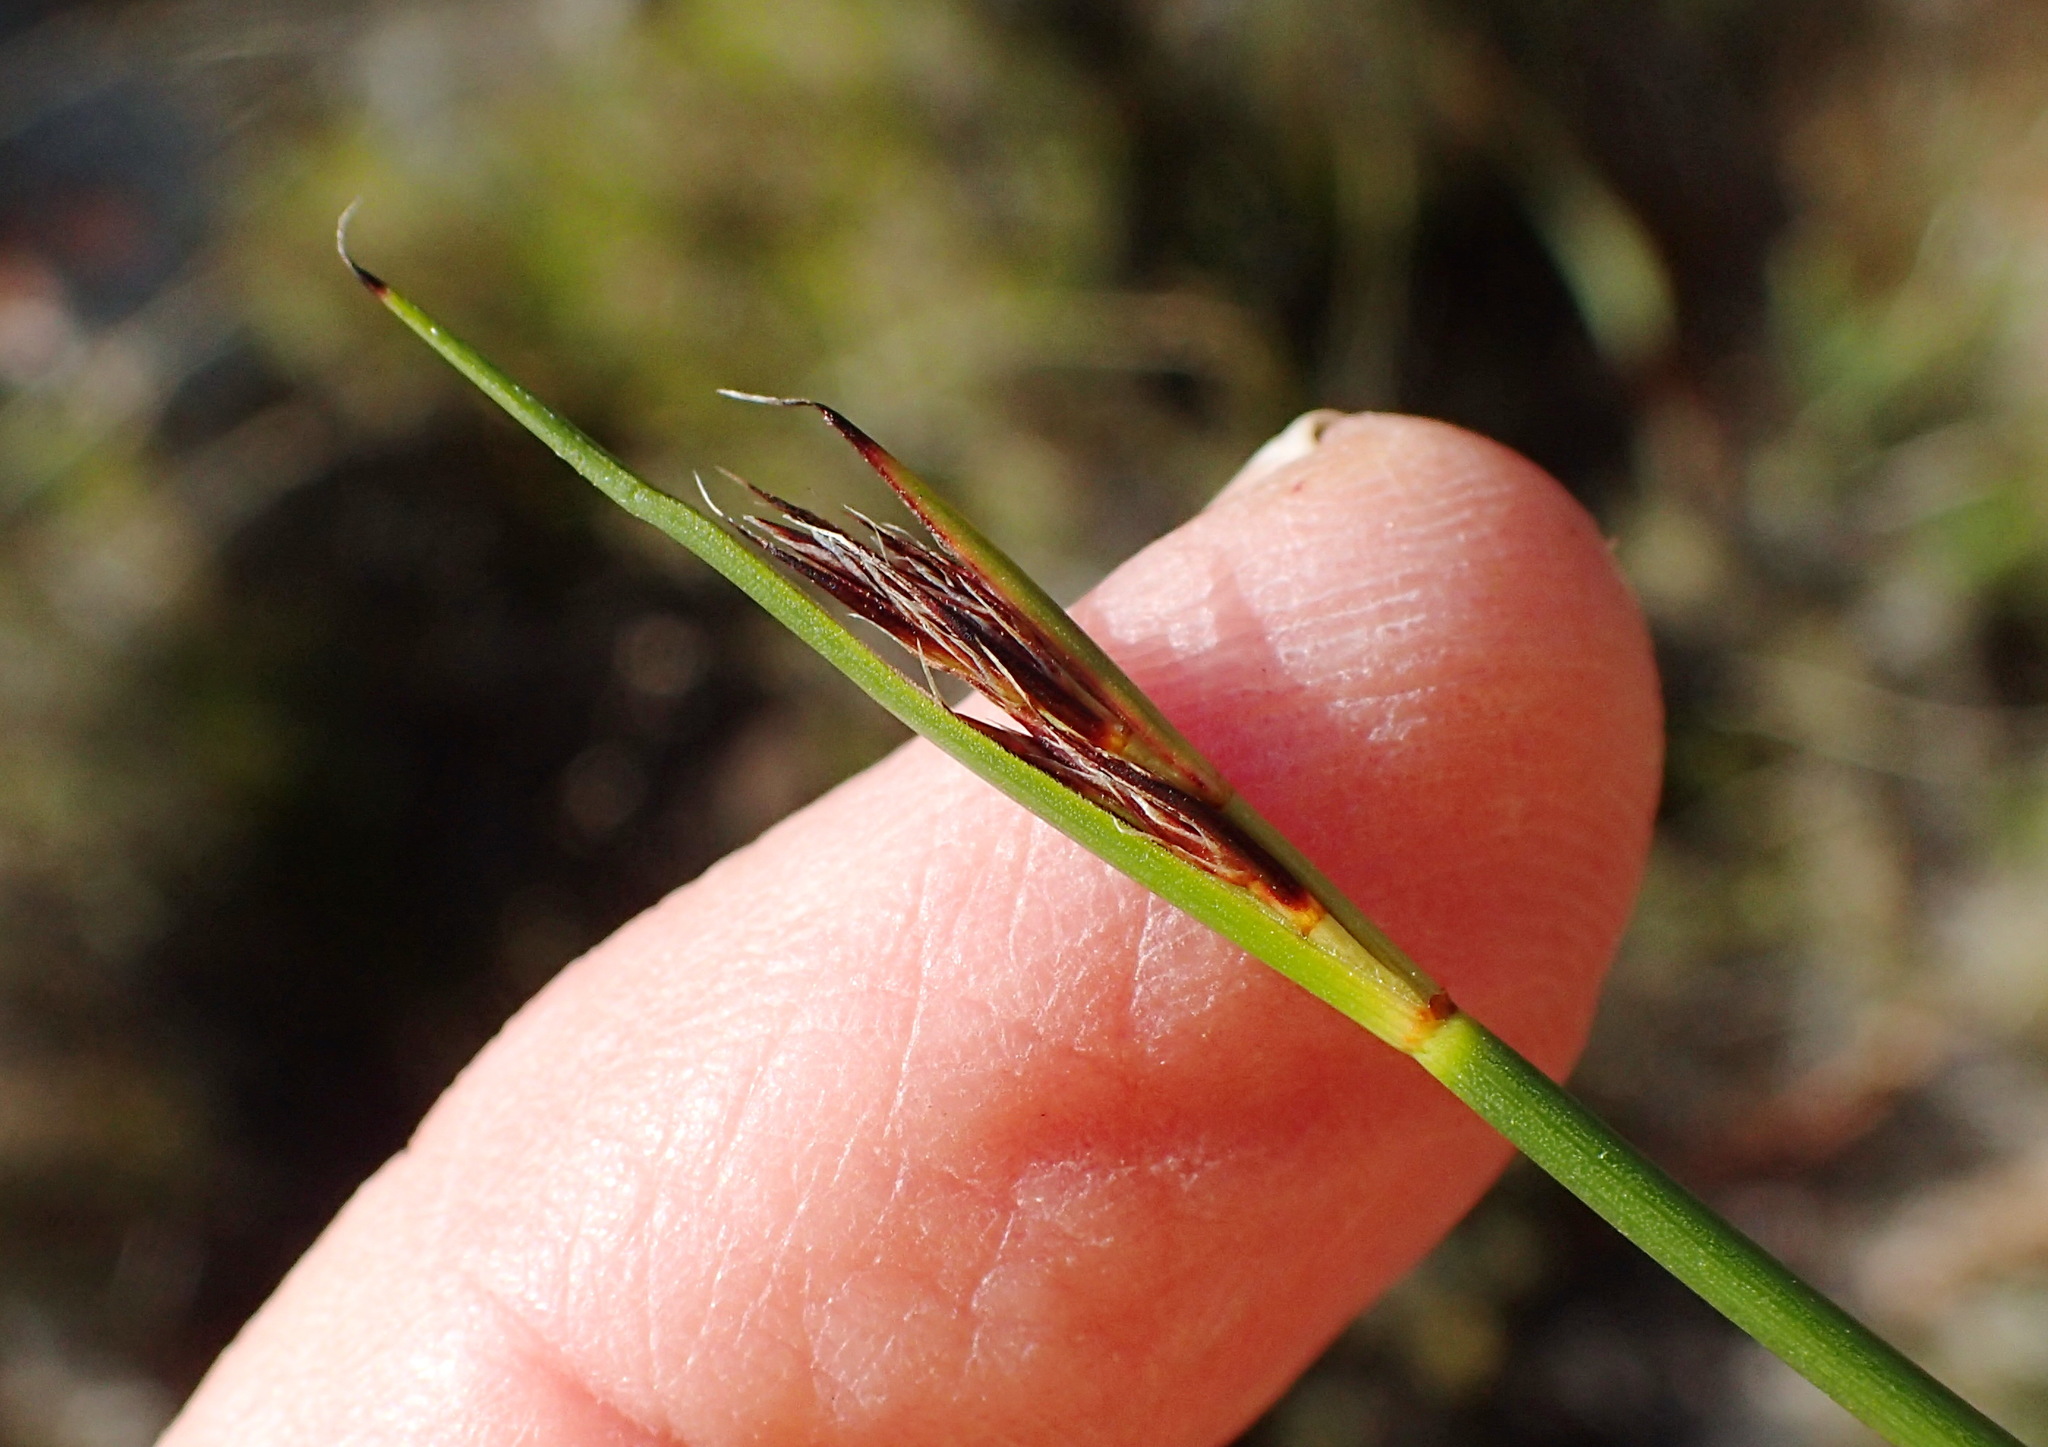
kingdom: Plantae
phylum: Tracheophyta
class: Liliopsida
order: Poales
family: Cyperaceae
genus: Schoenus
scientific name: Schoenus crassiculmis
